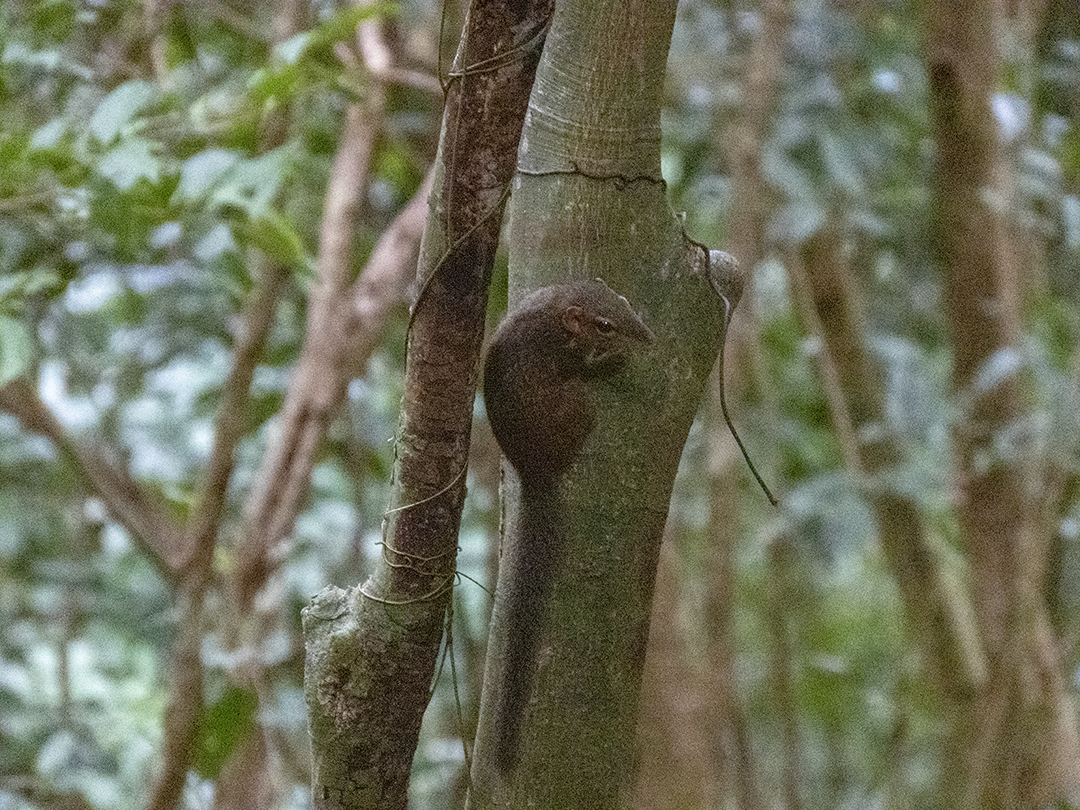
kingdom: Animalia
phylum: Chordata
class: Mammalia
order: Scandentia
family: Tupaiidae
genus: Tupaia
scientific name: Tupaia belangeri
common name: Northern treeshrew
